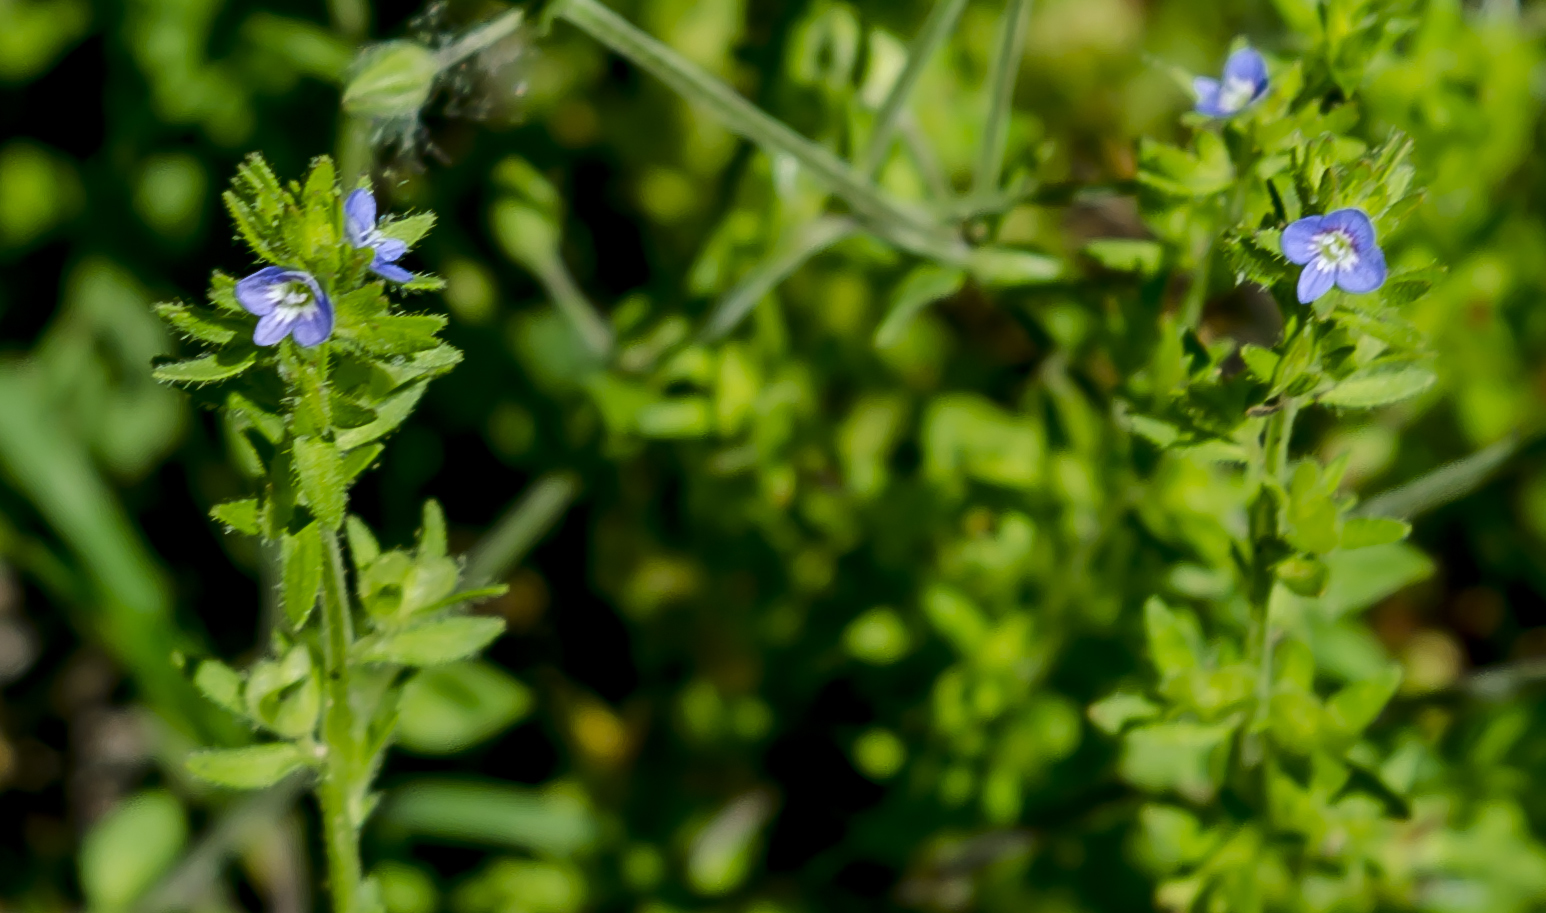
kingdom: Plantae
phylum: Tracheophyta
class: Magnoliopsida
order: Lamiales
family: Plantaginaceae
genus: Veronica
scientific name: Veronica arvensis
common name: Corn speedwell
